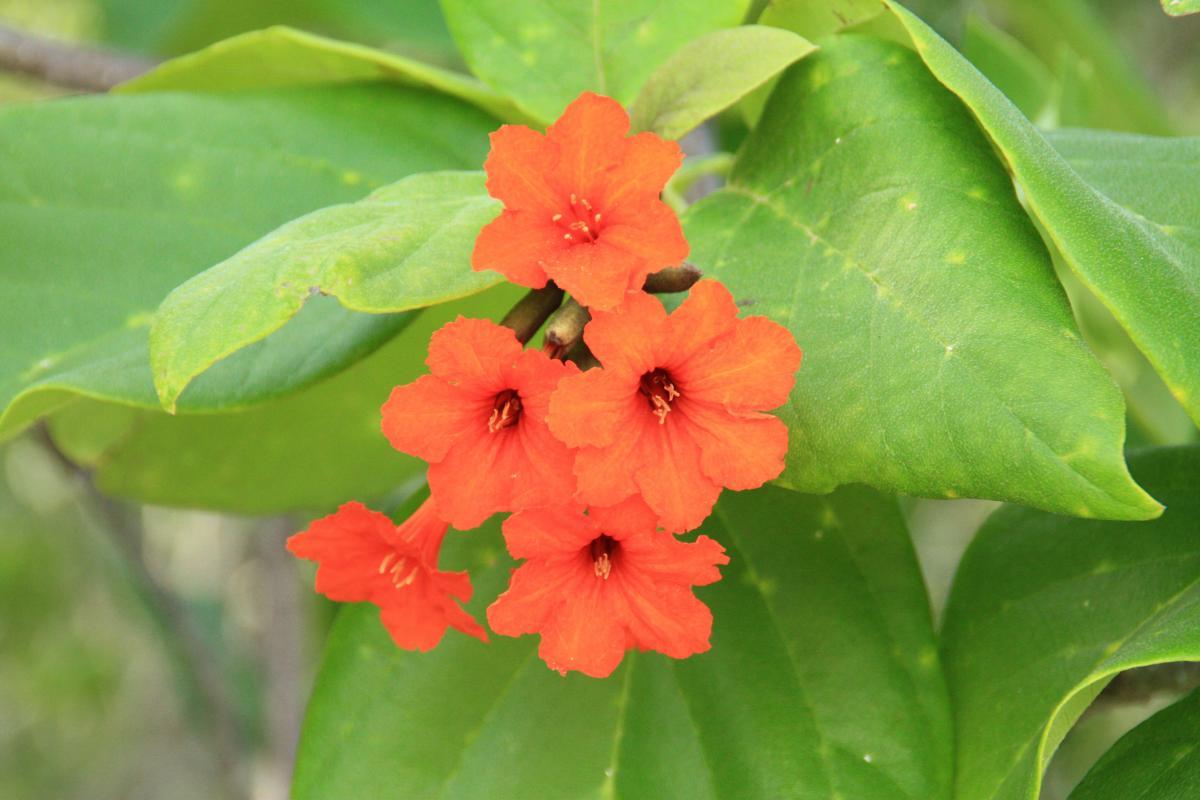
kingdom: Plantae
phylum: Tracheophyta
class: Magnoliopsida
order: Boraginales
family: Cordiaceae
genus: Cordia
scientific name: Cordia sebestena
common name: Largeleaf geigertree
